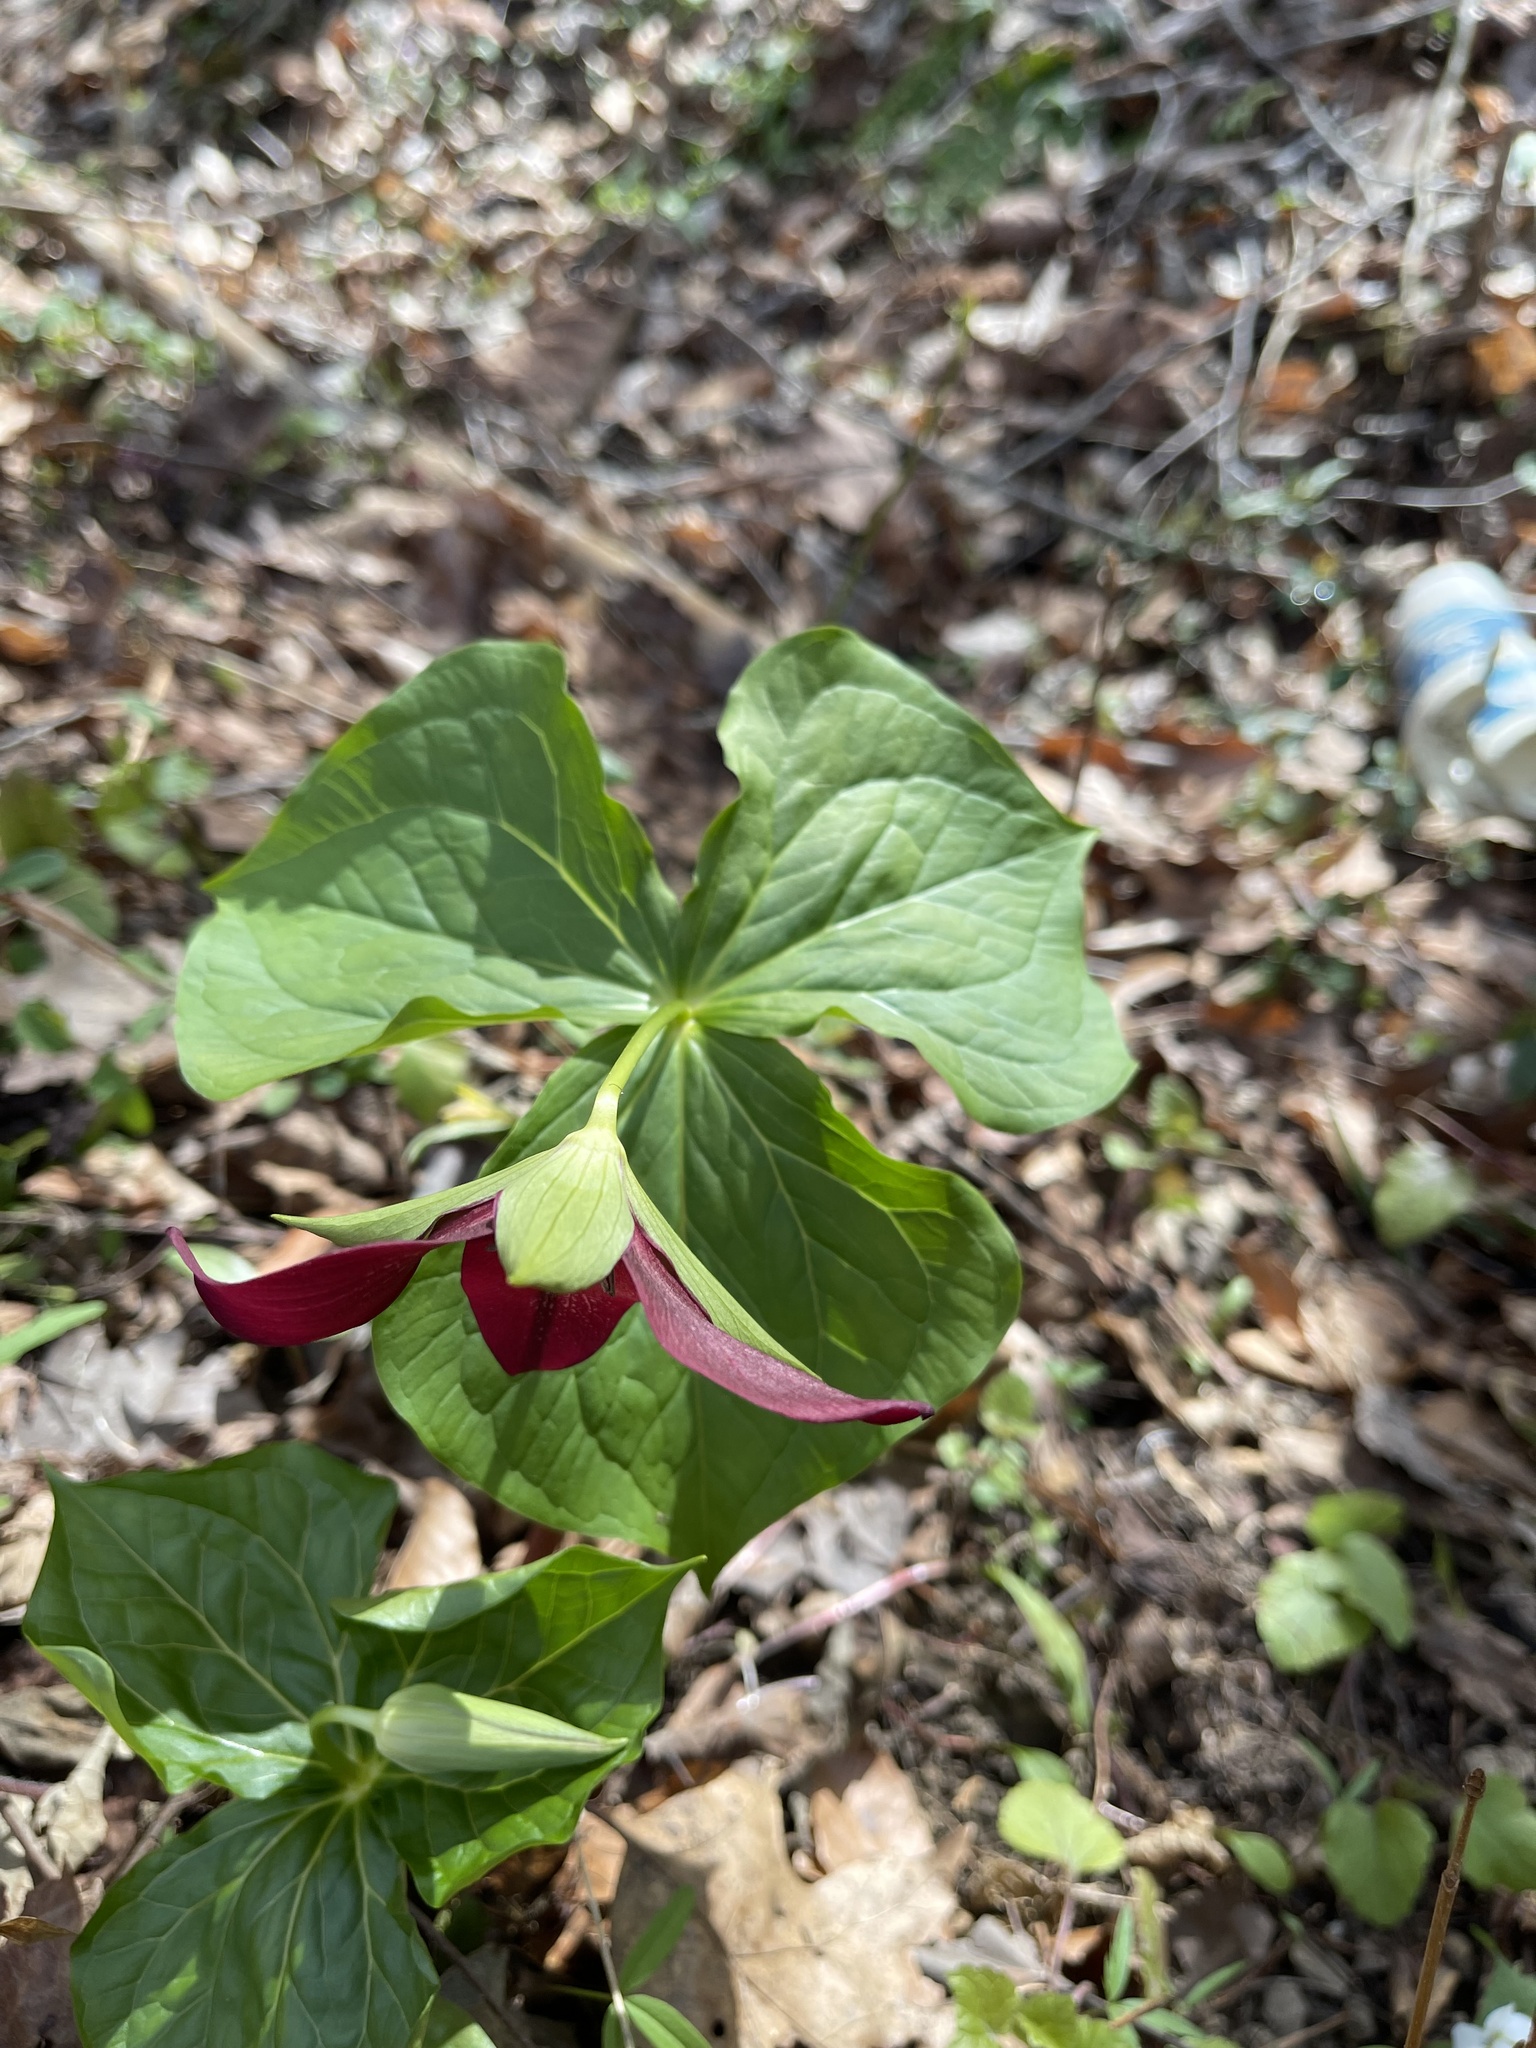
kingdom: Plantae
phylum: Tracheophyta
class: Liliopsida
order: Liliales
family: Melanthiaceae
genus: Trillium
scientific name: Trillium erectum
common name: Purple trillium
